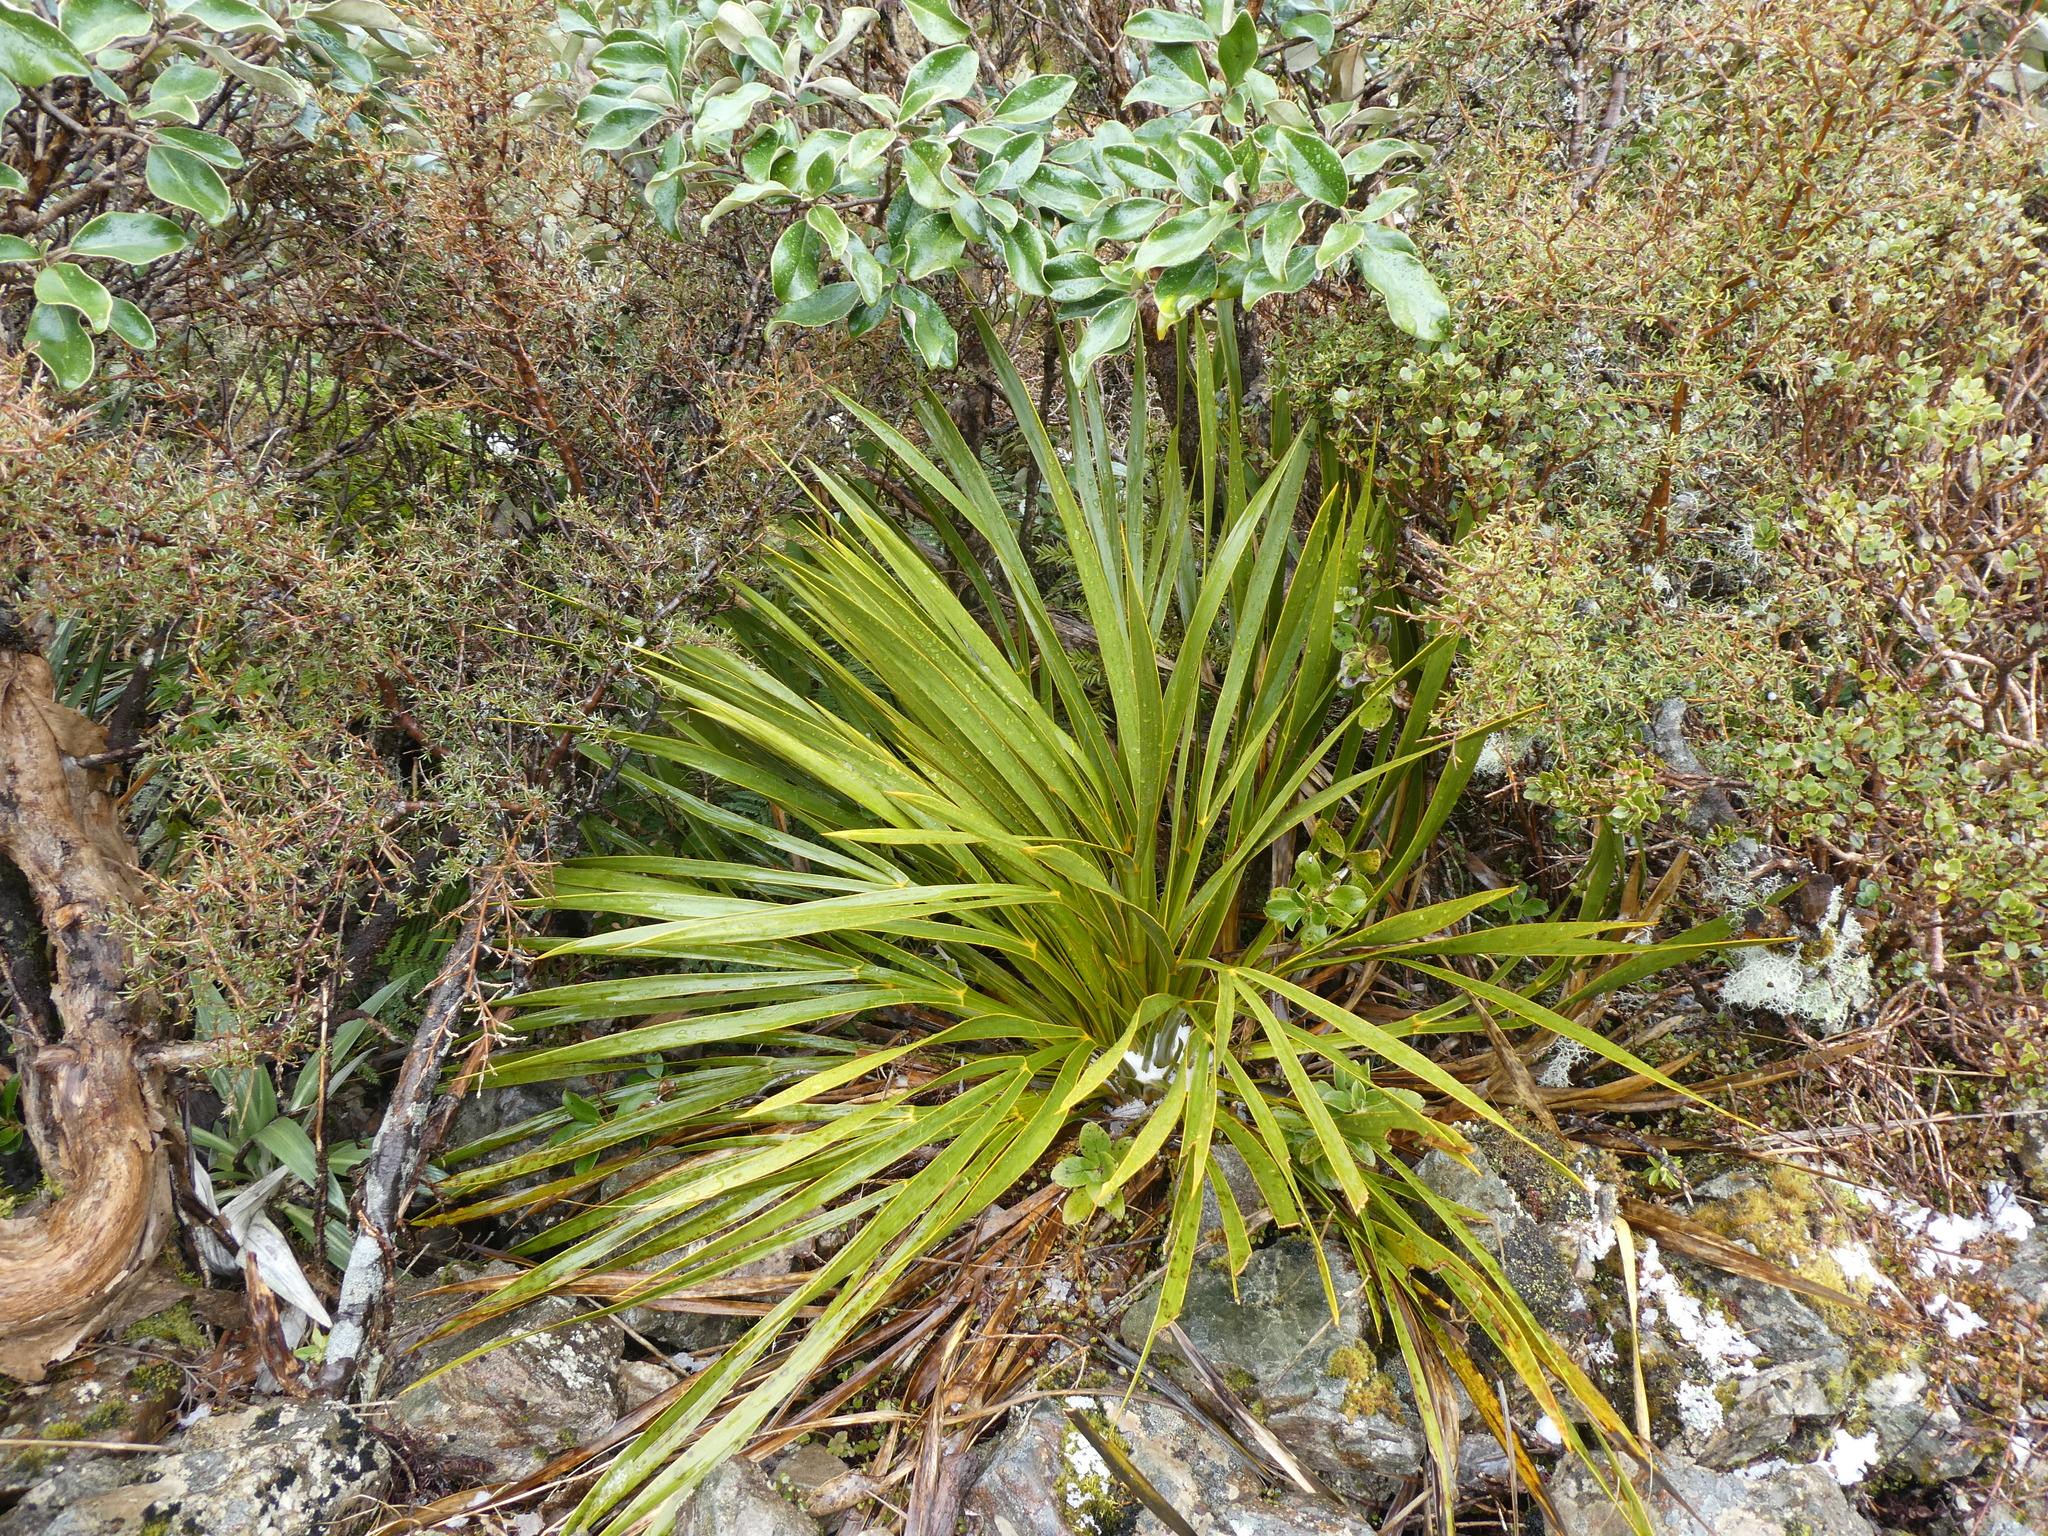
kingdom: Plantae
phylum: Tracheophyta
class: Magnoliopsida
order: Apiales
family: Apiaceae
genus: Aciphylla
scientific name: Aciphylla horrida
